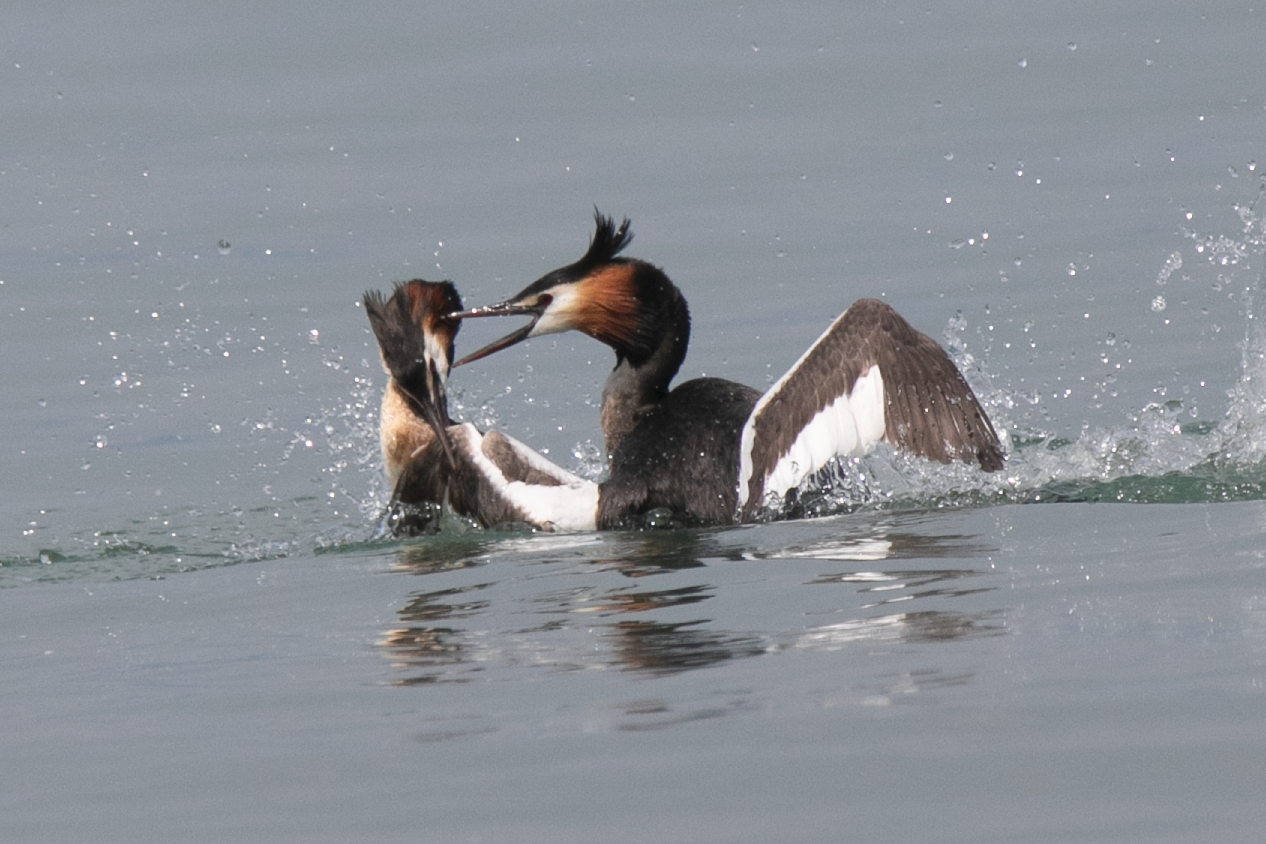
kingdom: Animalia
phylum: Chordata
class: Aves
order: Podicipediformes
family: Podicipedidae
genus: Podiceps
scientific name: Podiceps cristatus
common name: Great crested grebe
